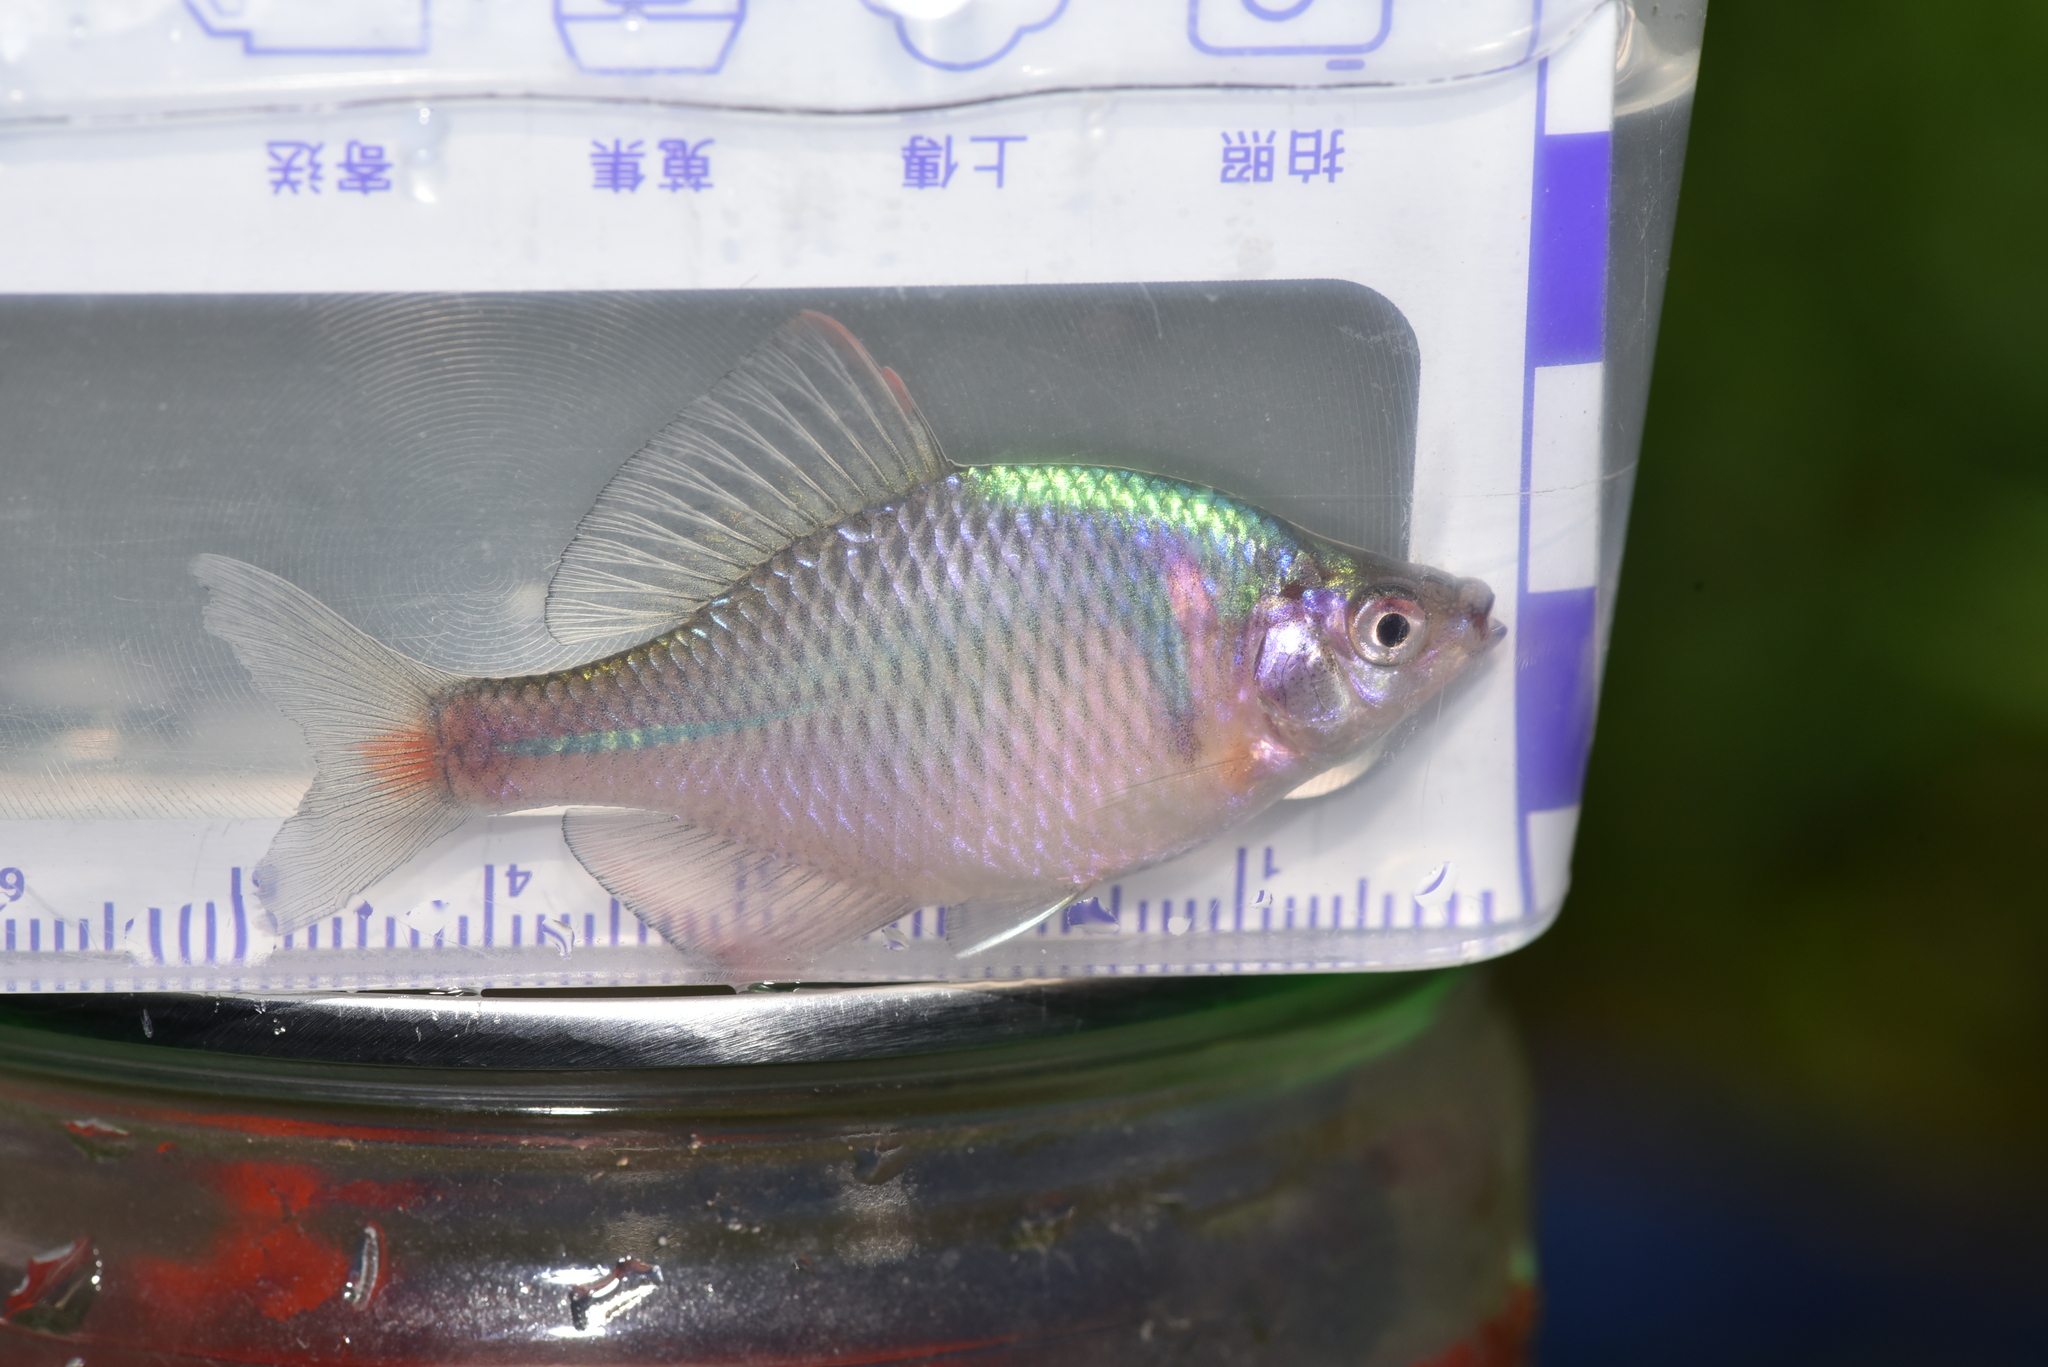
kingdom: Animalia
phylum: Chordata
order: Cypriniformes
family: Cyprinidae
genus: Rhodeus
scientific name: Rhodeus ocellatus
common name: Rose bitterling
